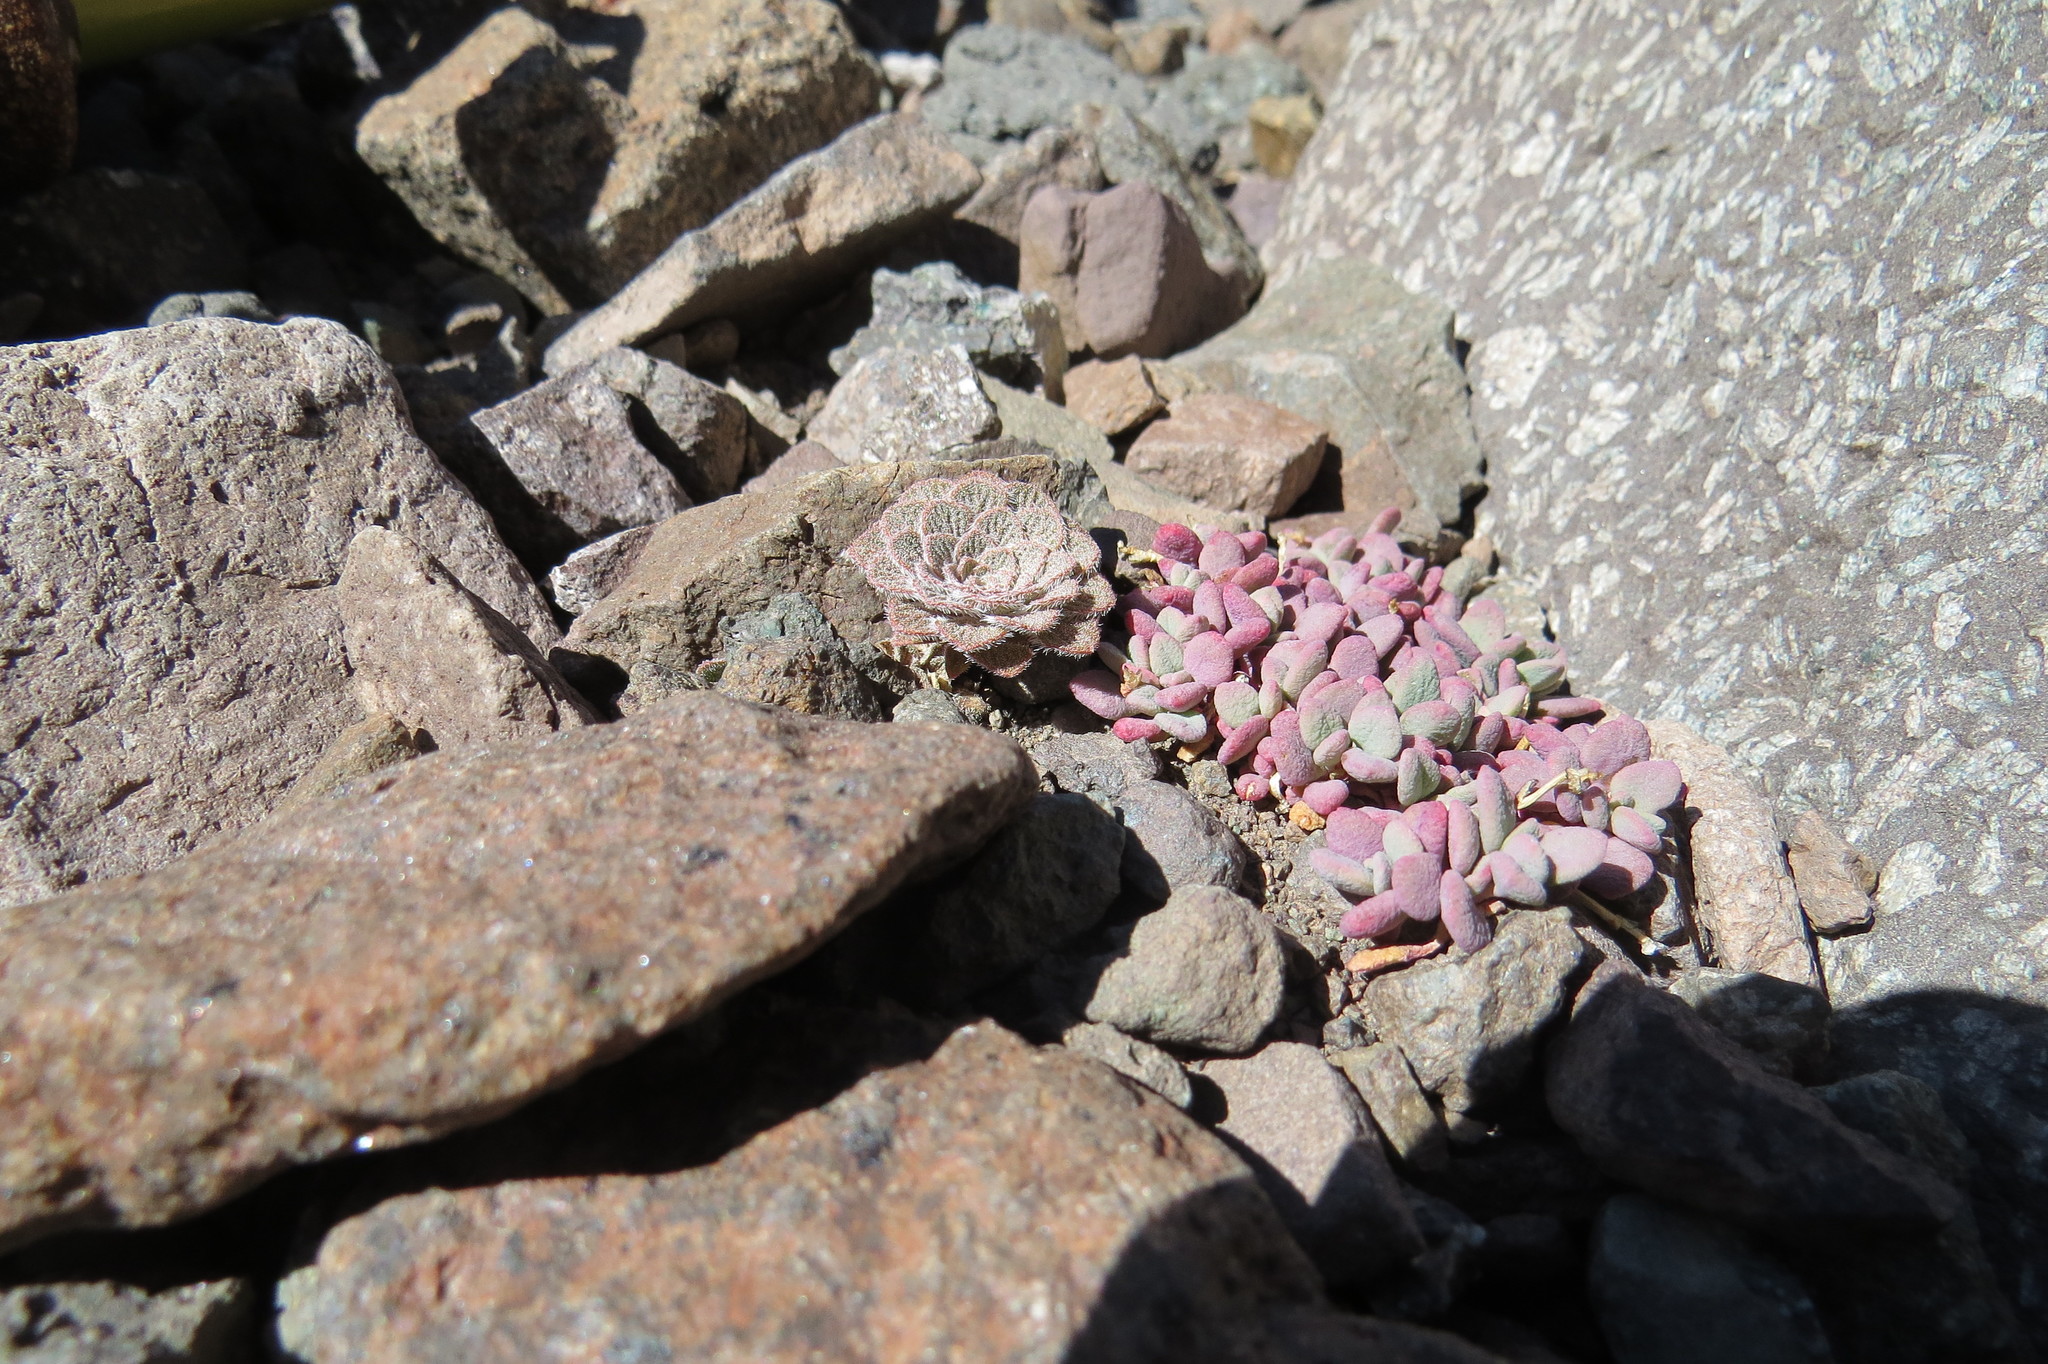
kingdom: Plantae
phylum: Tracheophyta
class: Magnoliopsida
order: Caryophyllales
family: Montiaceae
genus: Cistanthe
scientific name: Cistanthe frigida
